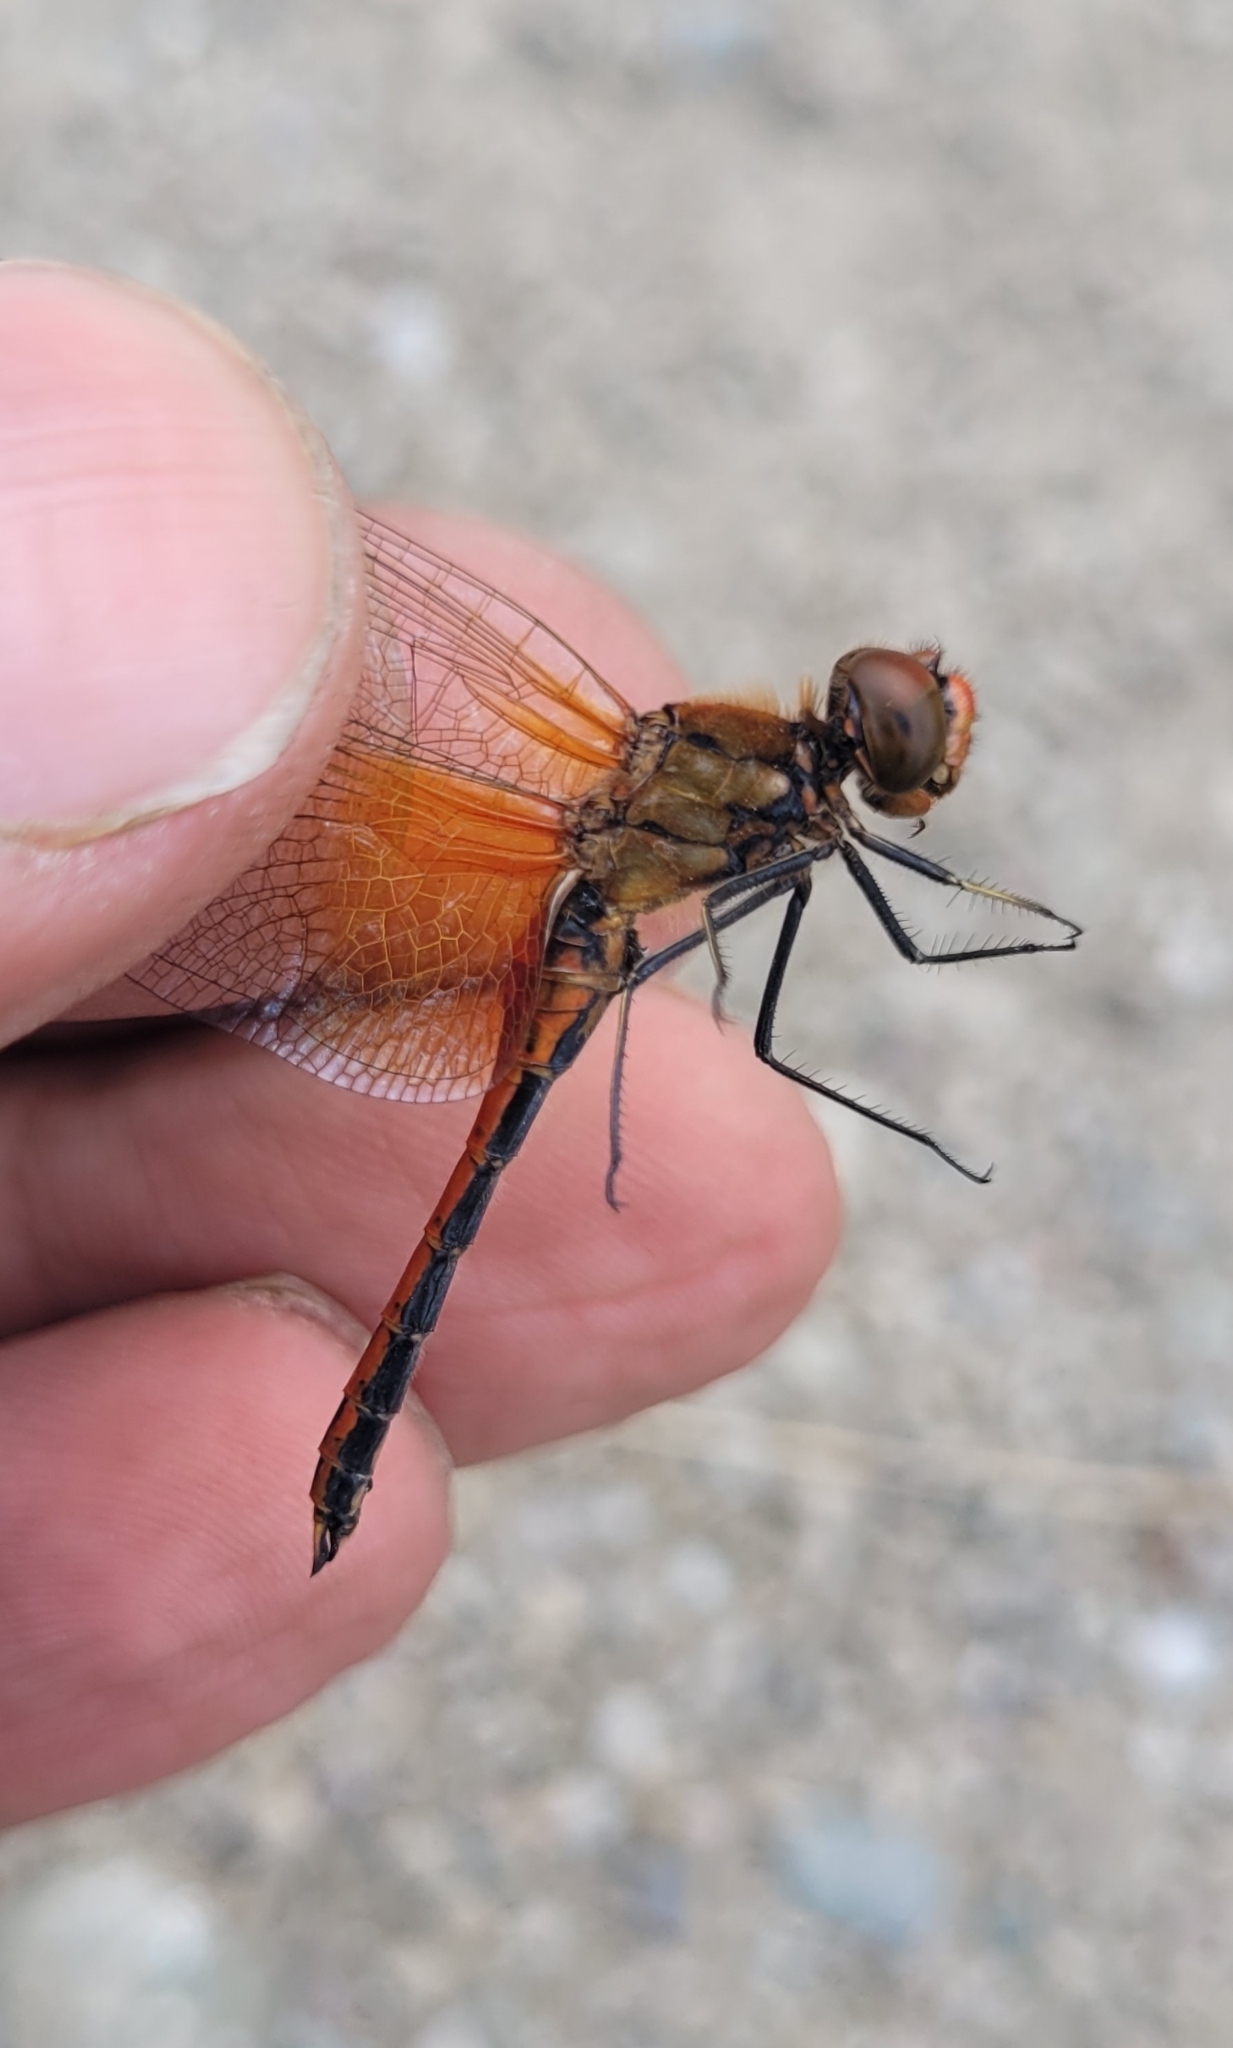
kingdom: Animalia
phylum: Arthropoda
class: Insecta
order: Odonata
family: Libellulidae
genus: Sympetrum
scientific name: Sympetrum flaveolum
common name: Yellow-winged darter
